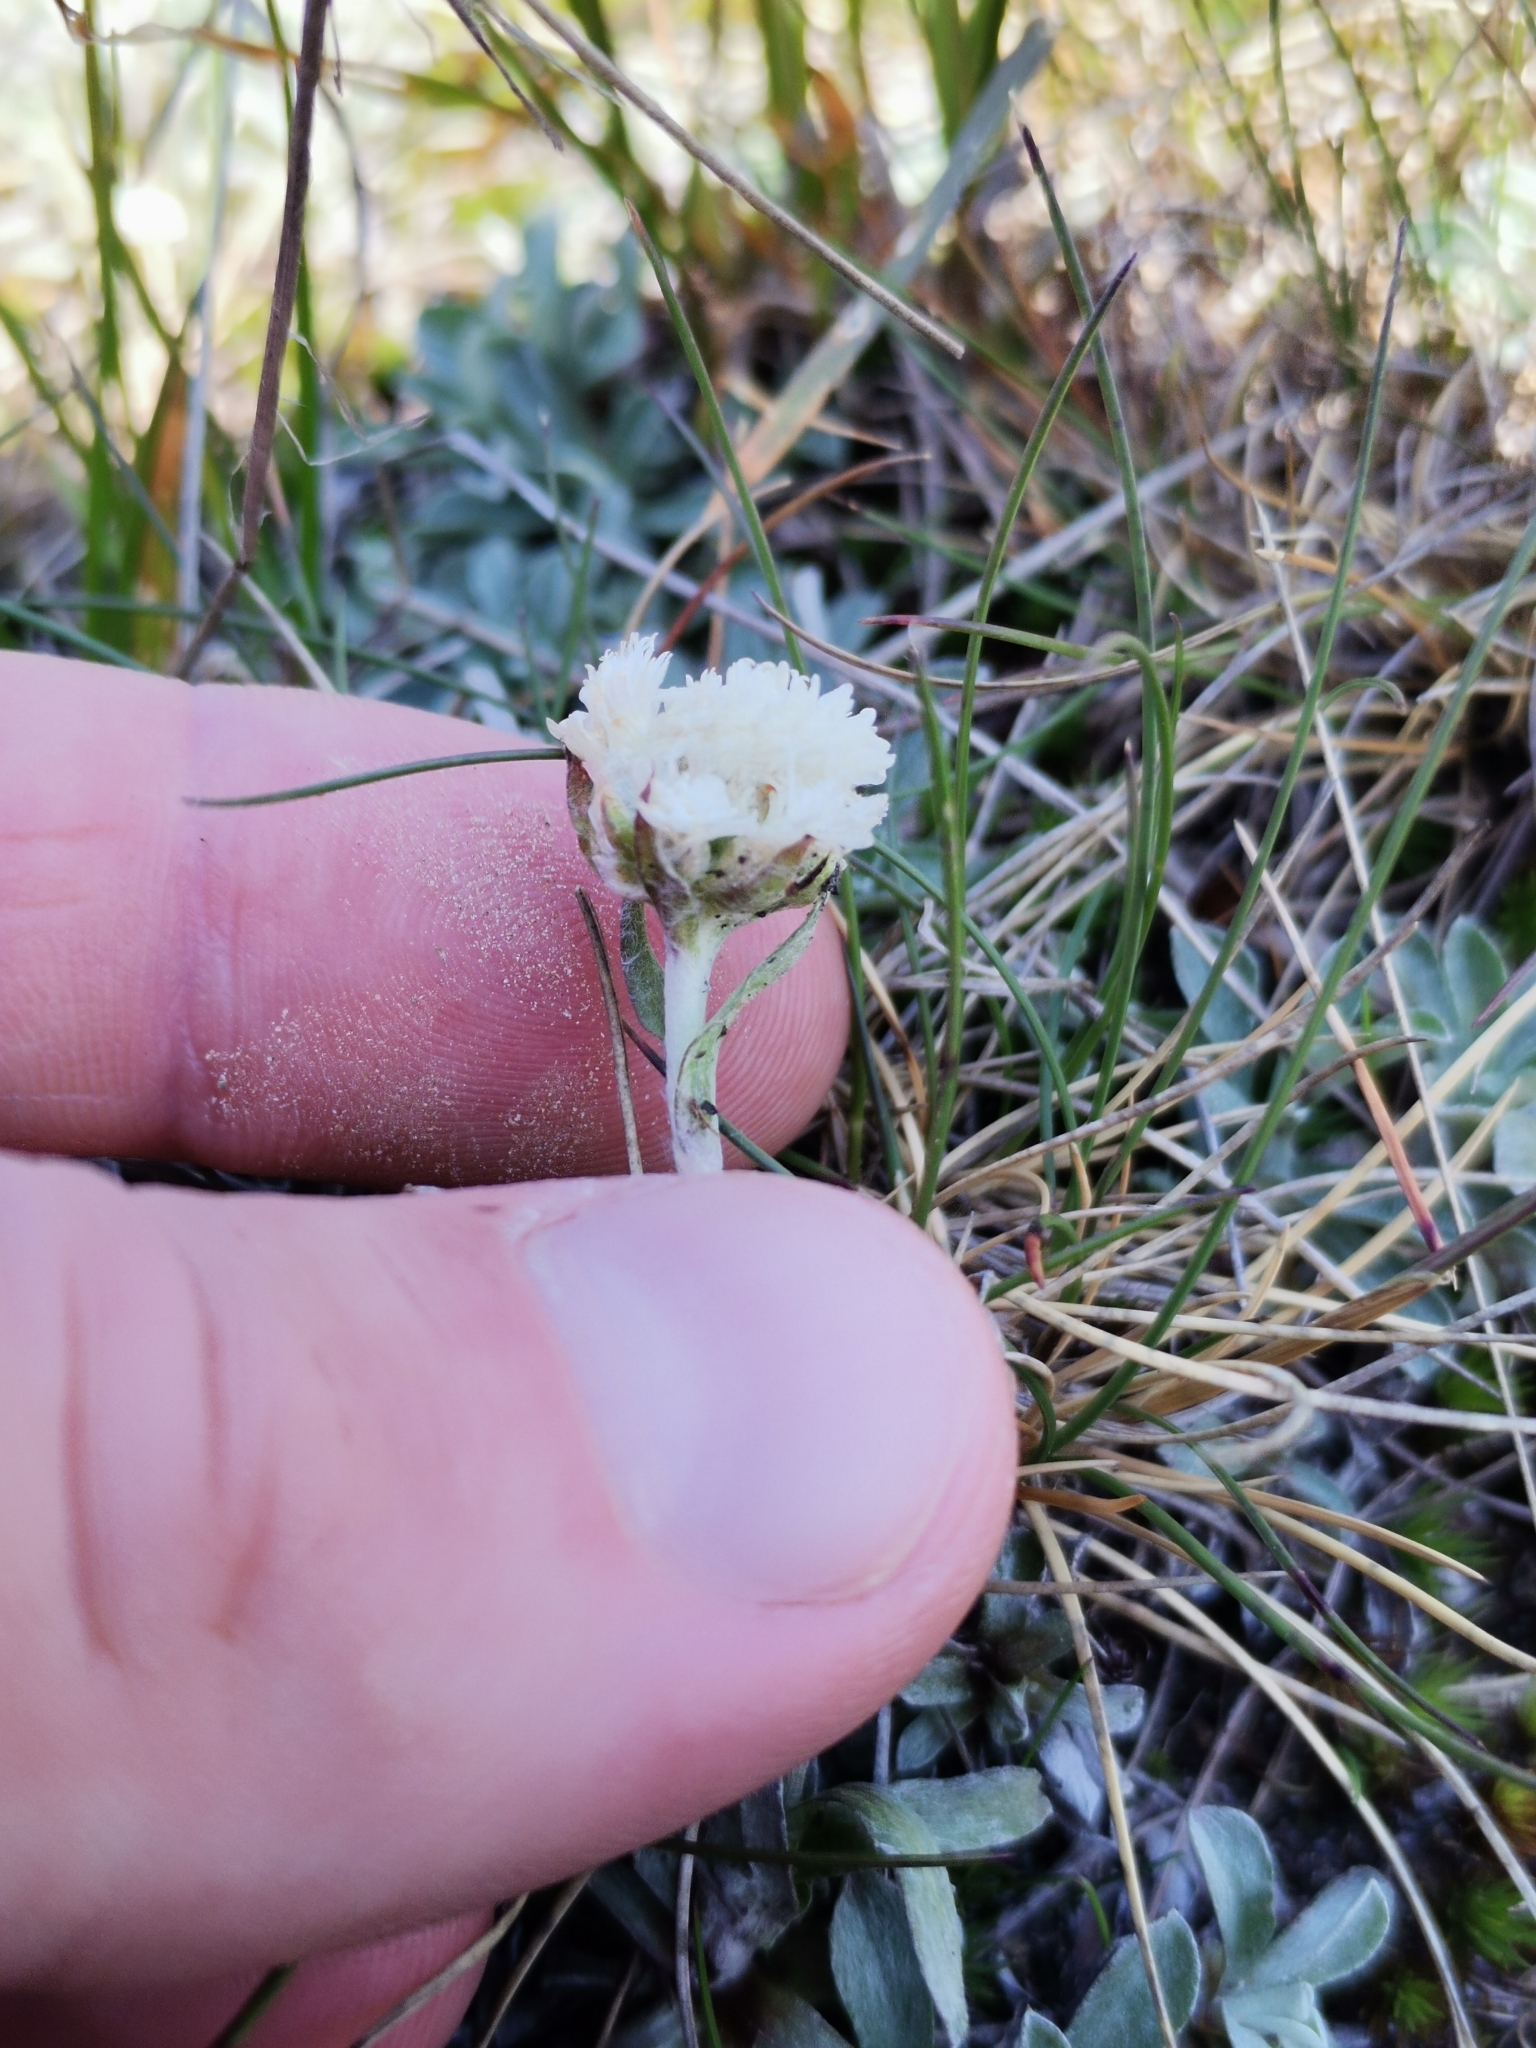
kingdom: Plantae
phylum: Tracheophyta
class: Magnoliopsida
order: Asterales
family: Asteraceae
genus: Antennaria
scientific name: Antennaria dioica
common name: Mountain everlasting
